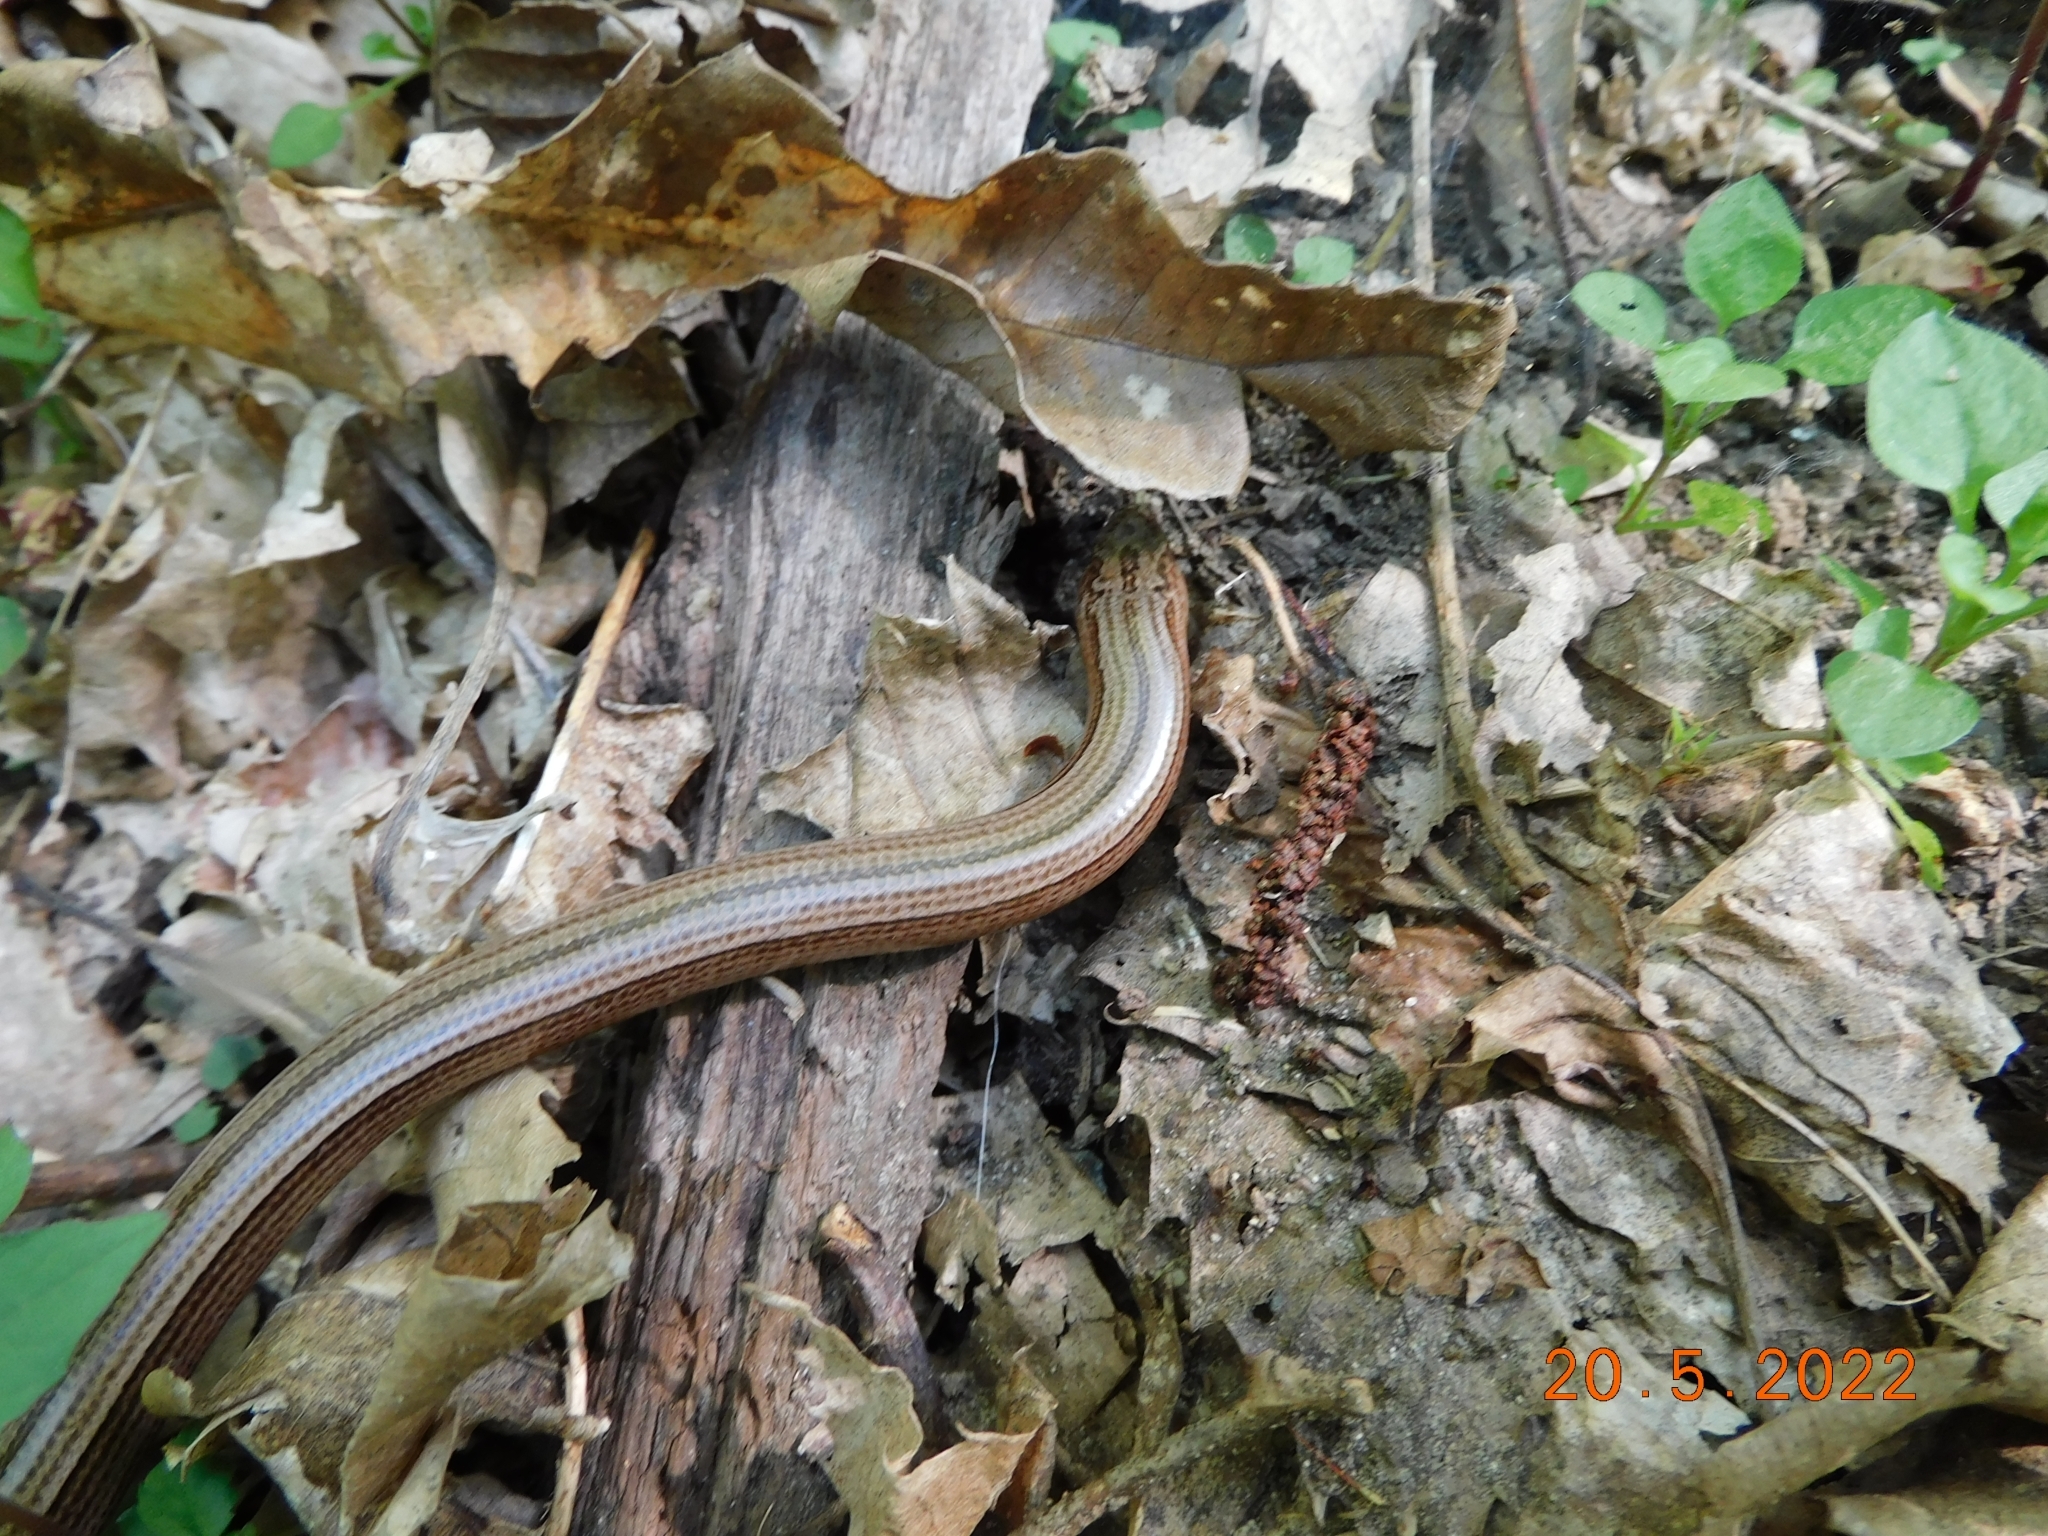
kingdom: Animalia
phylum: Chordata
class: Squamata
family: Anguidae
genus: Anguis
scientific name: Anguis veronensis
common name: Italian slow worm
